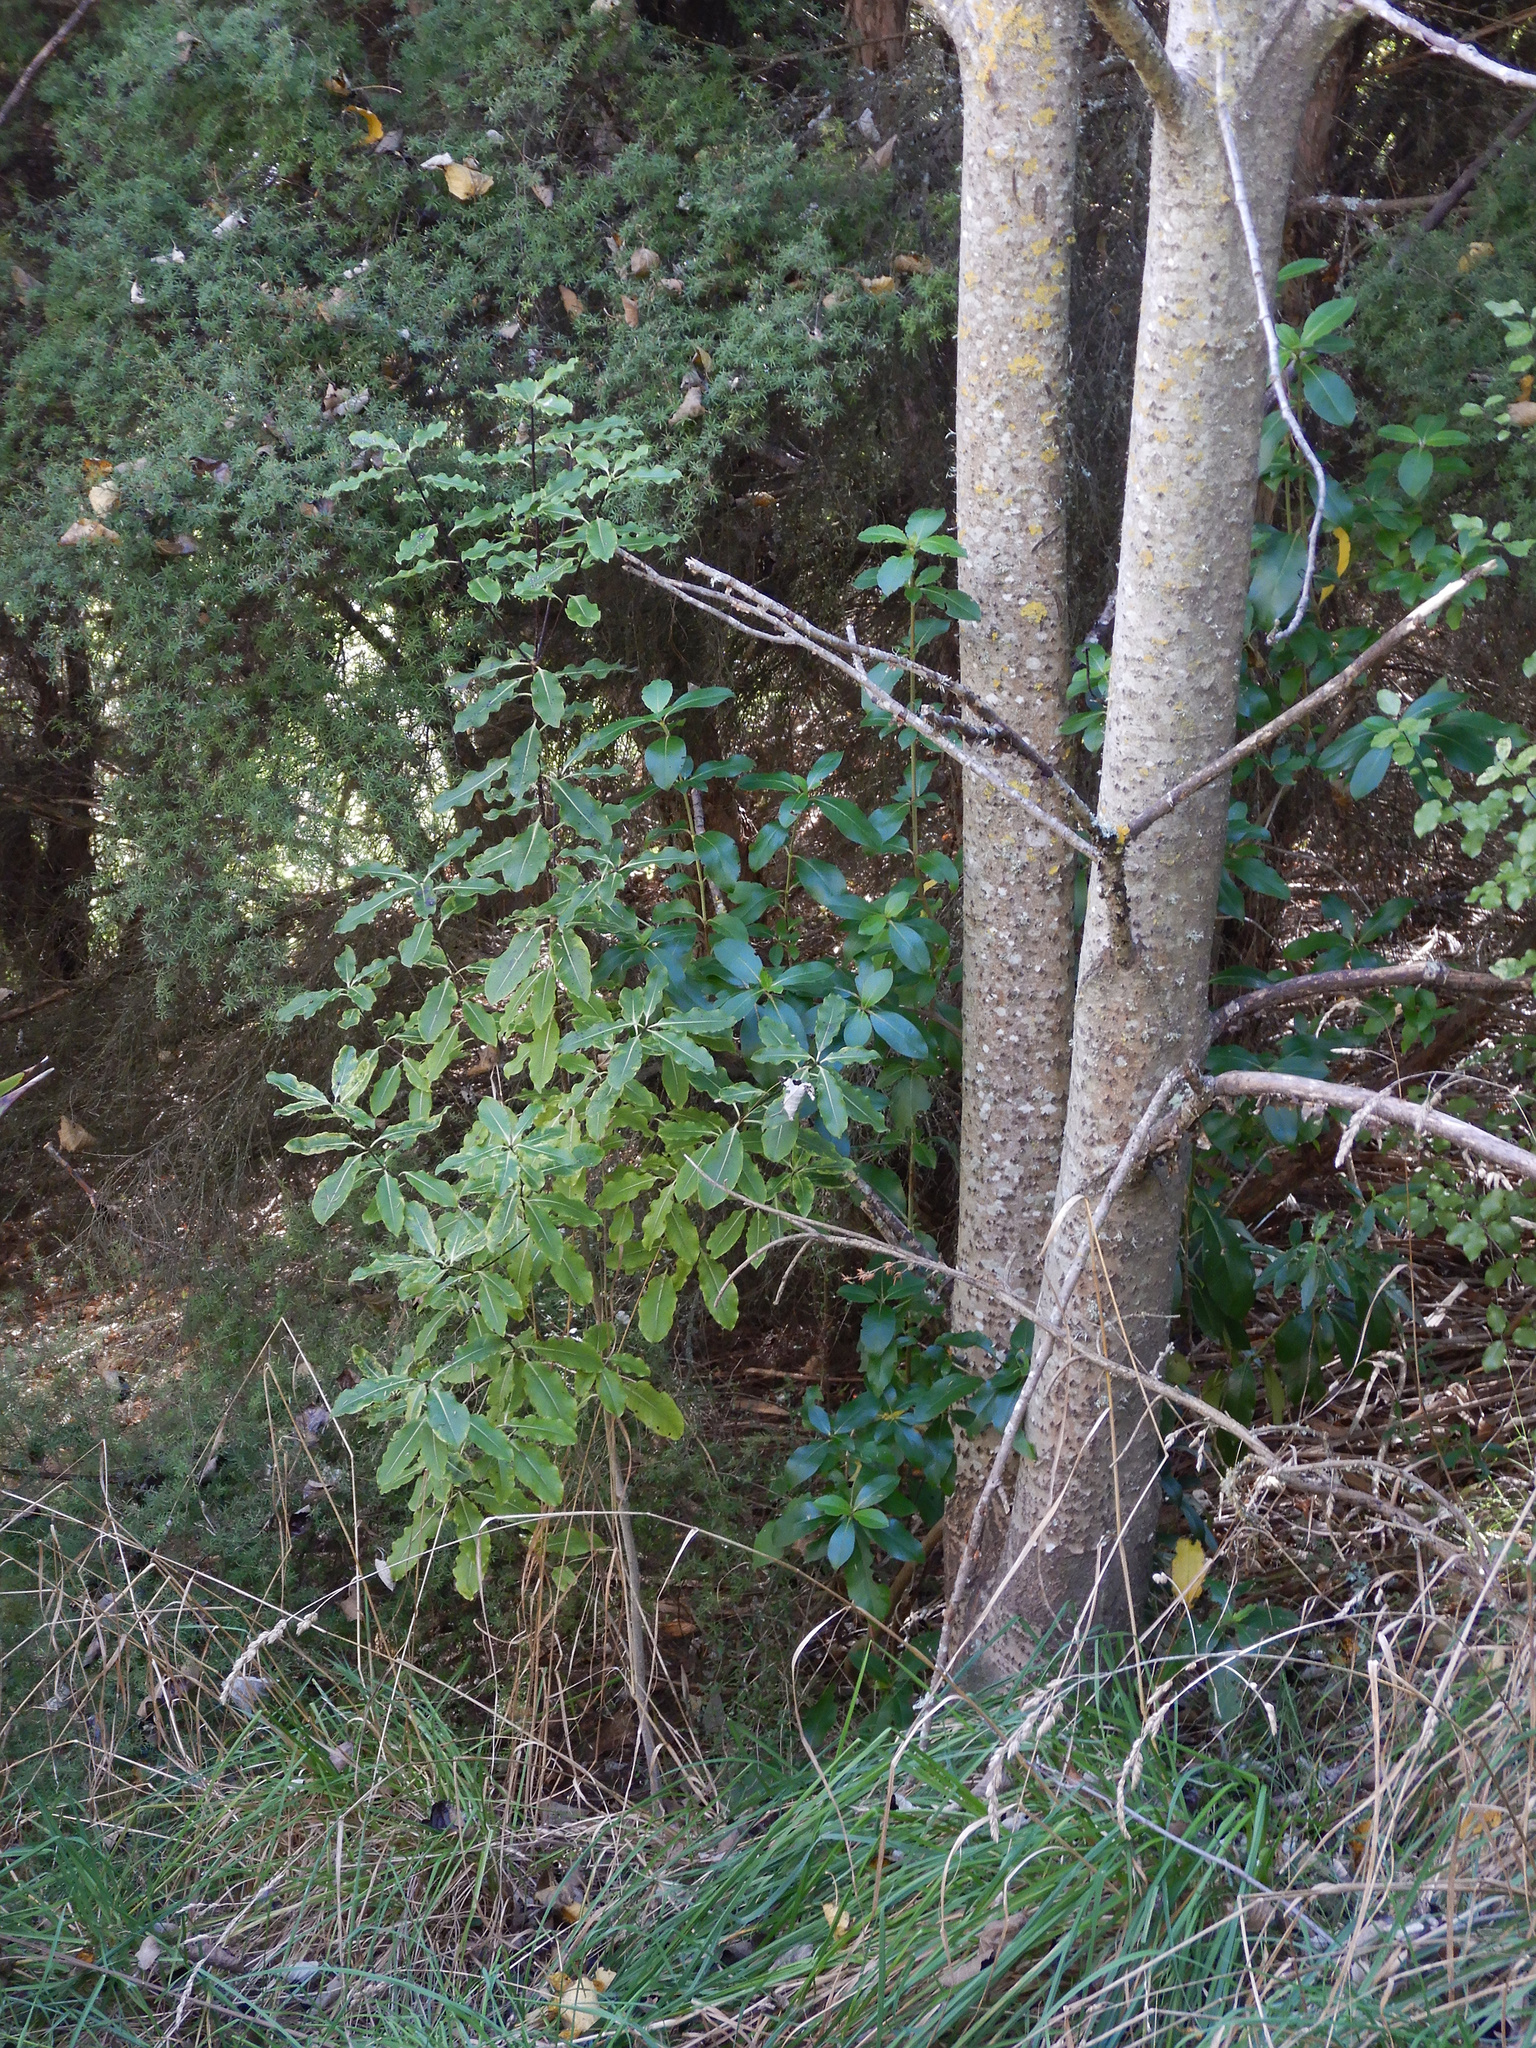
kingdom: Plantae
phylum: Tracheophyta
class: Magnoliopsida
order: Apiales
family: Pittosporaceae
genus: Pittosporum
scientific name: Pittosporum eugenioides
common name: Lemonwood
